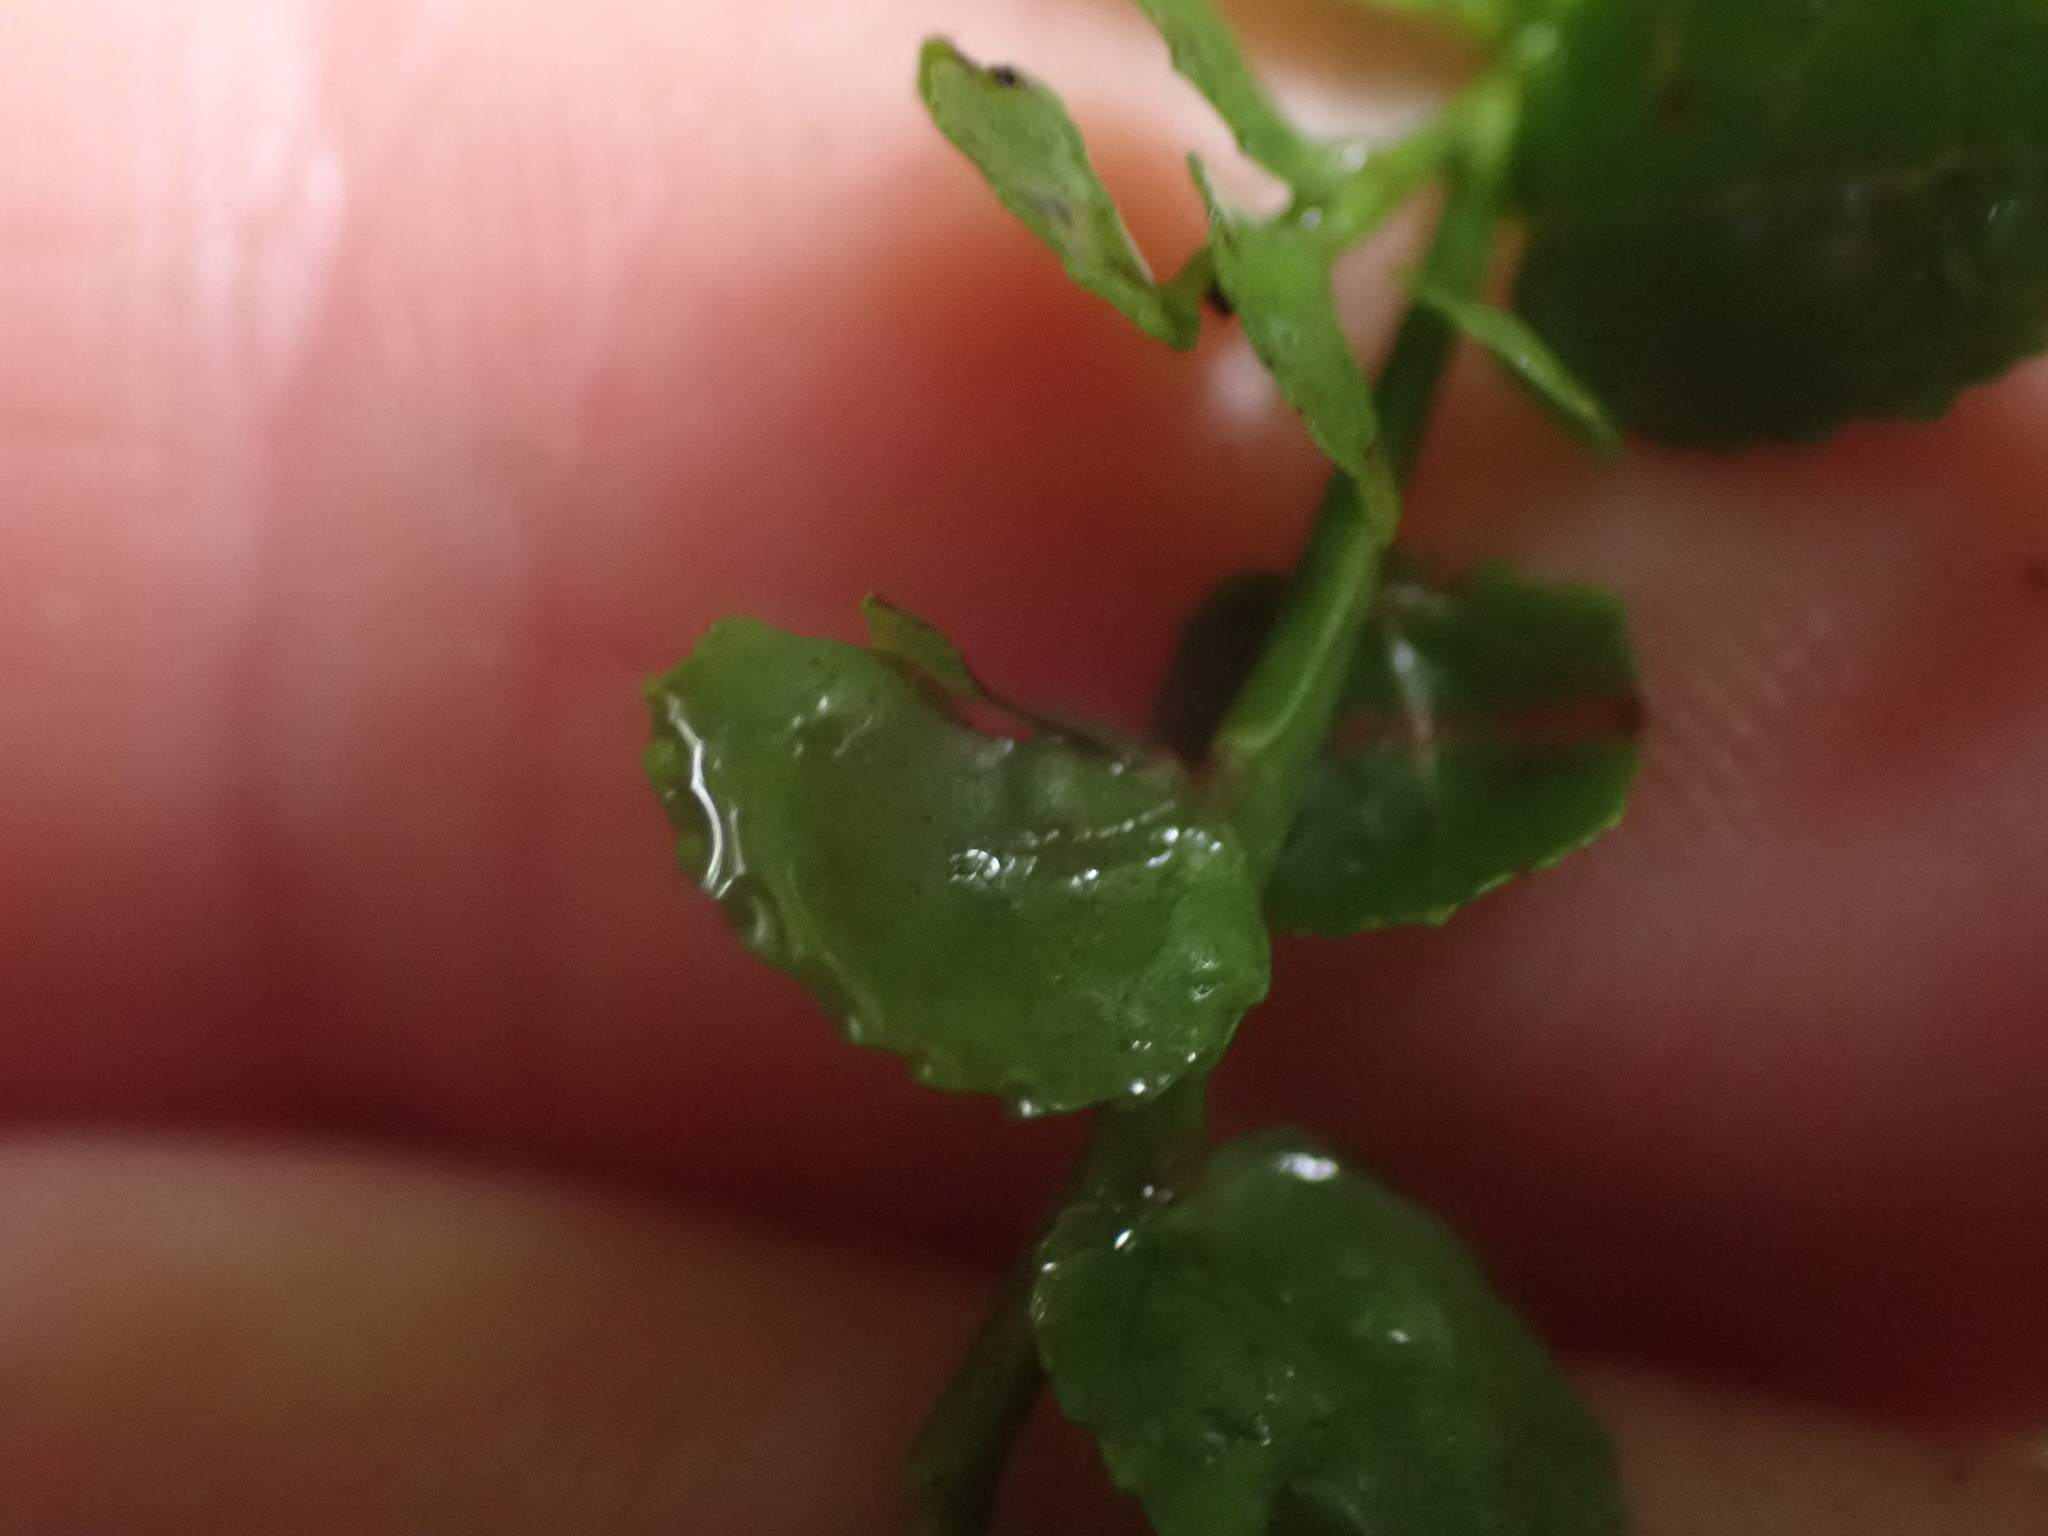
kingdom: Plantae
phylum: Tracheophyta
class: Magnoliopsida
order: Ericales
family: Ericaceae
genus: Vaccinium
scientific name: Vaccinium parvifolium
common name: Red-huckleberry
